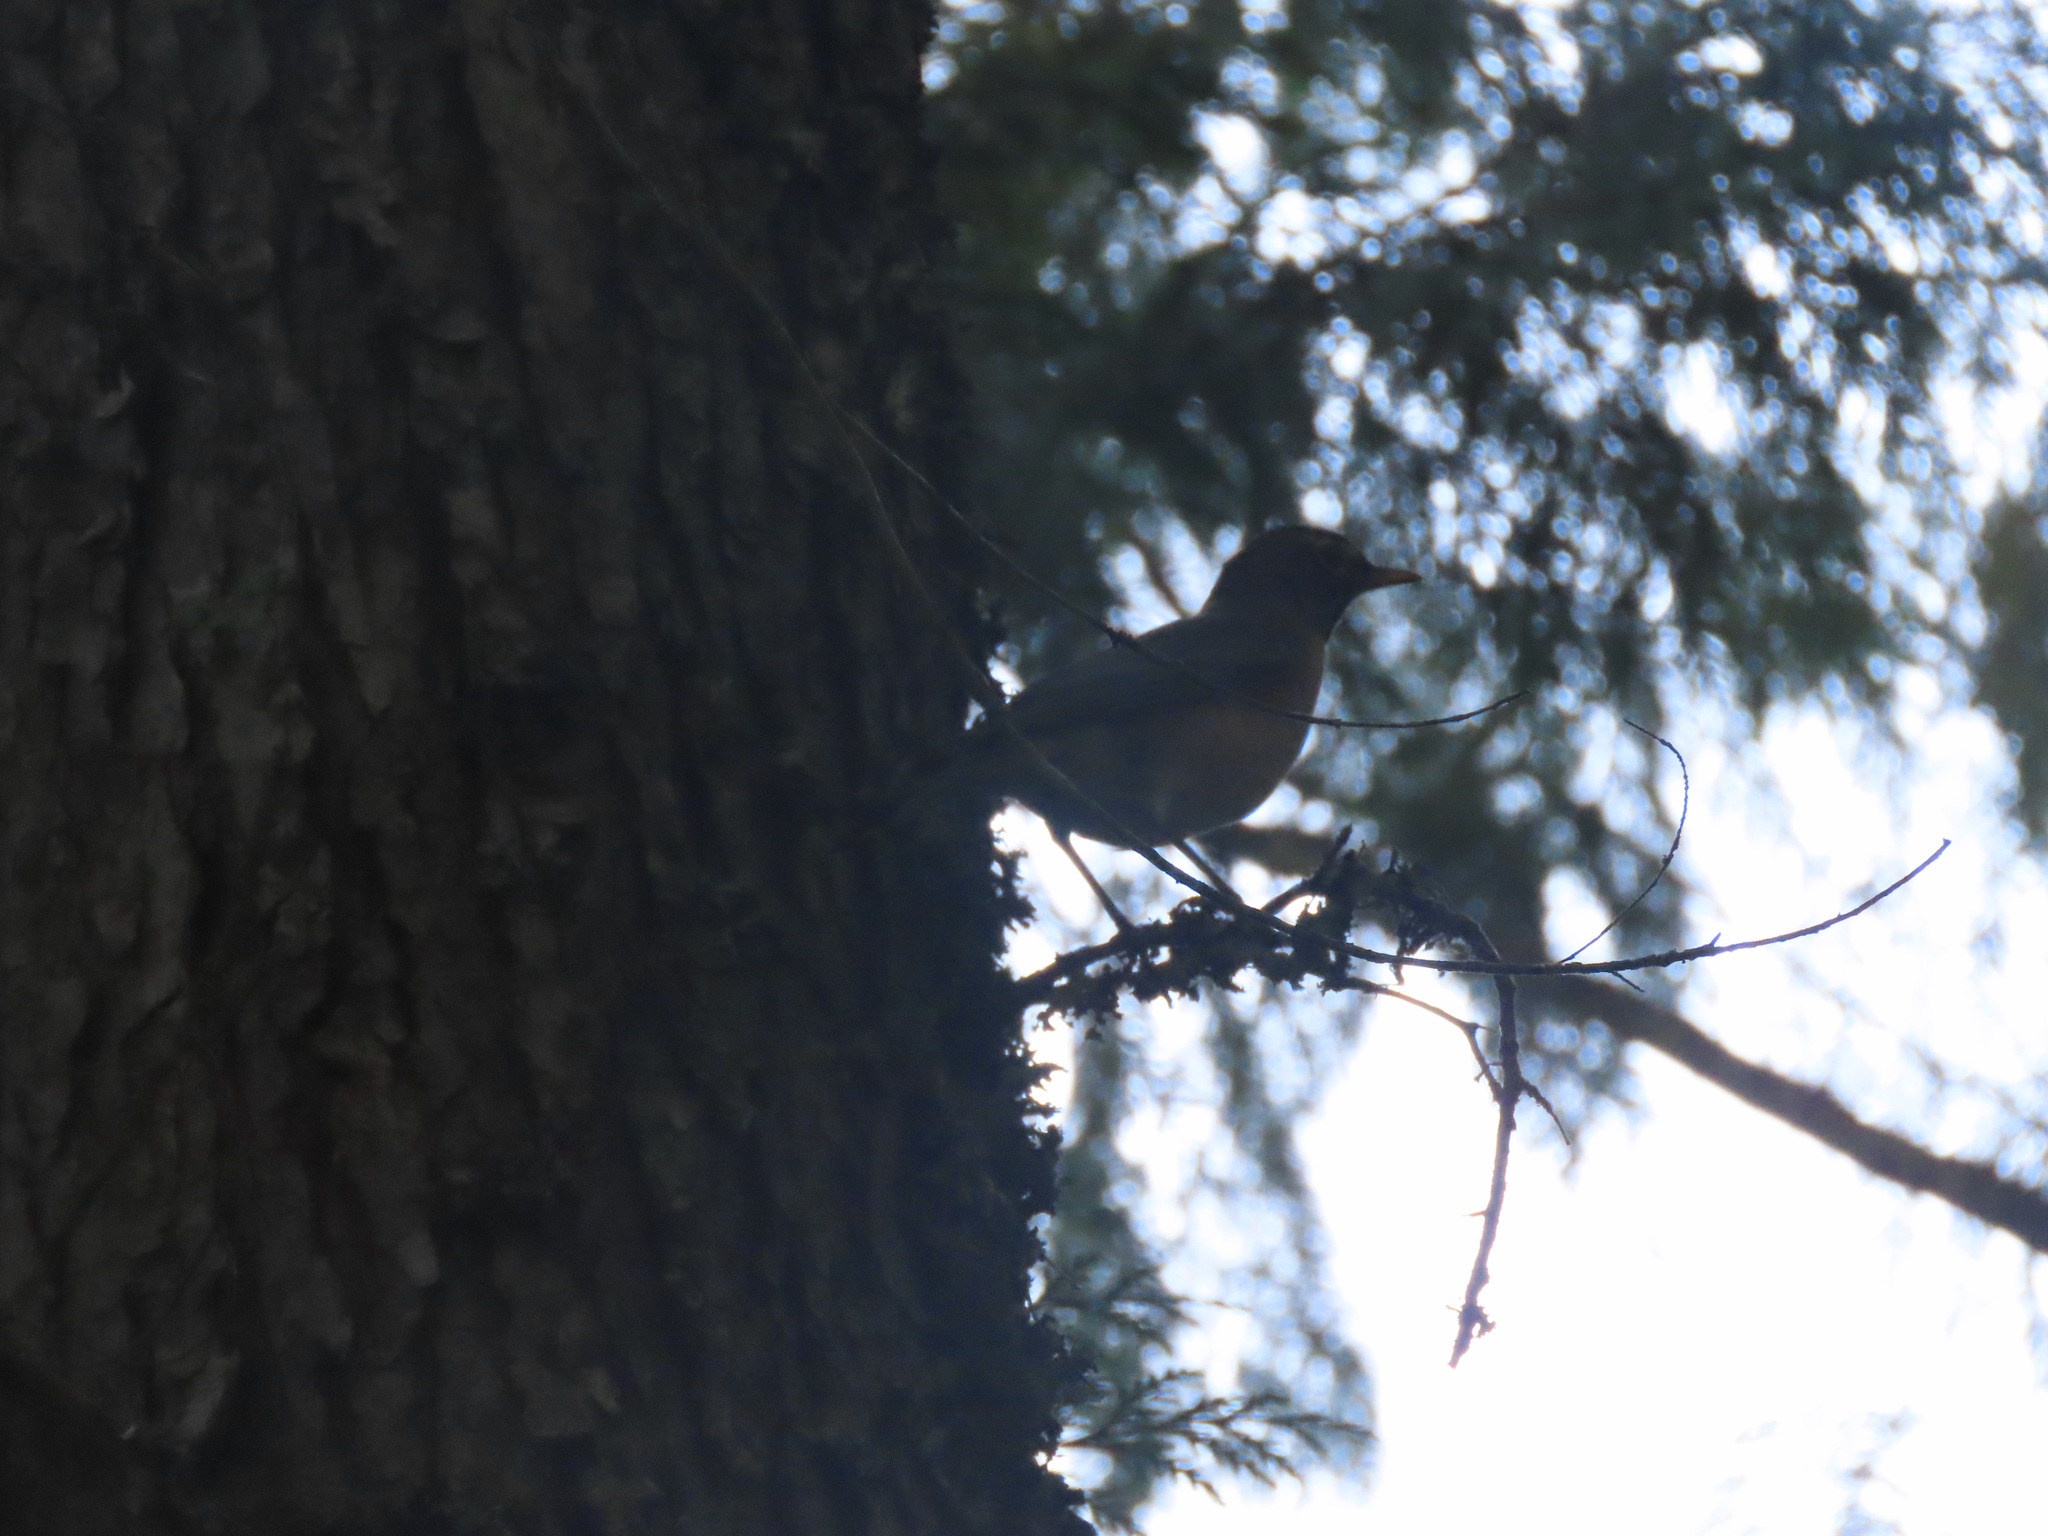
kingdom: Animalia
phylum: Chordata
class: Aves
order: Passeriformes
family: Turdidae
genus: Turdus
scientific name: Turdus migratorius
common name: American robin
